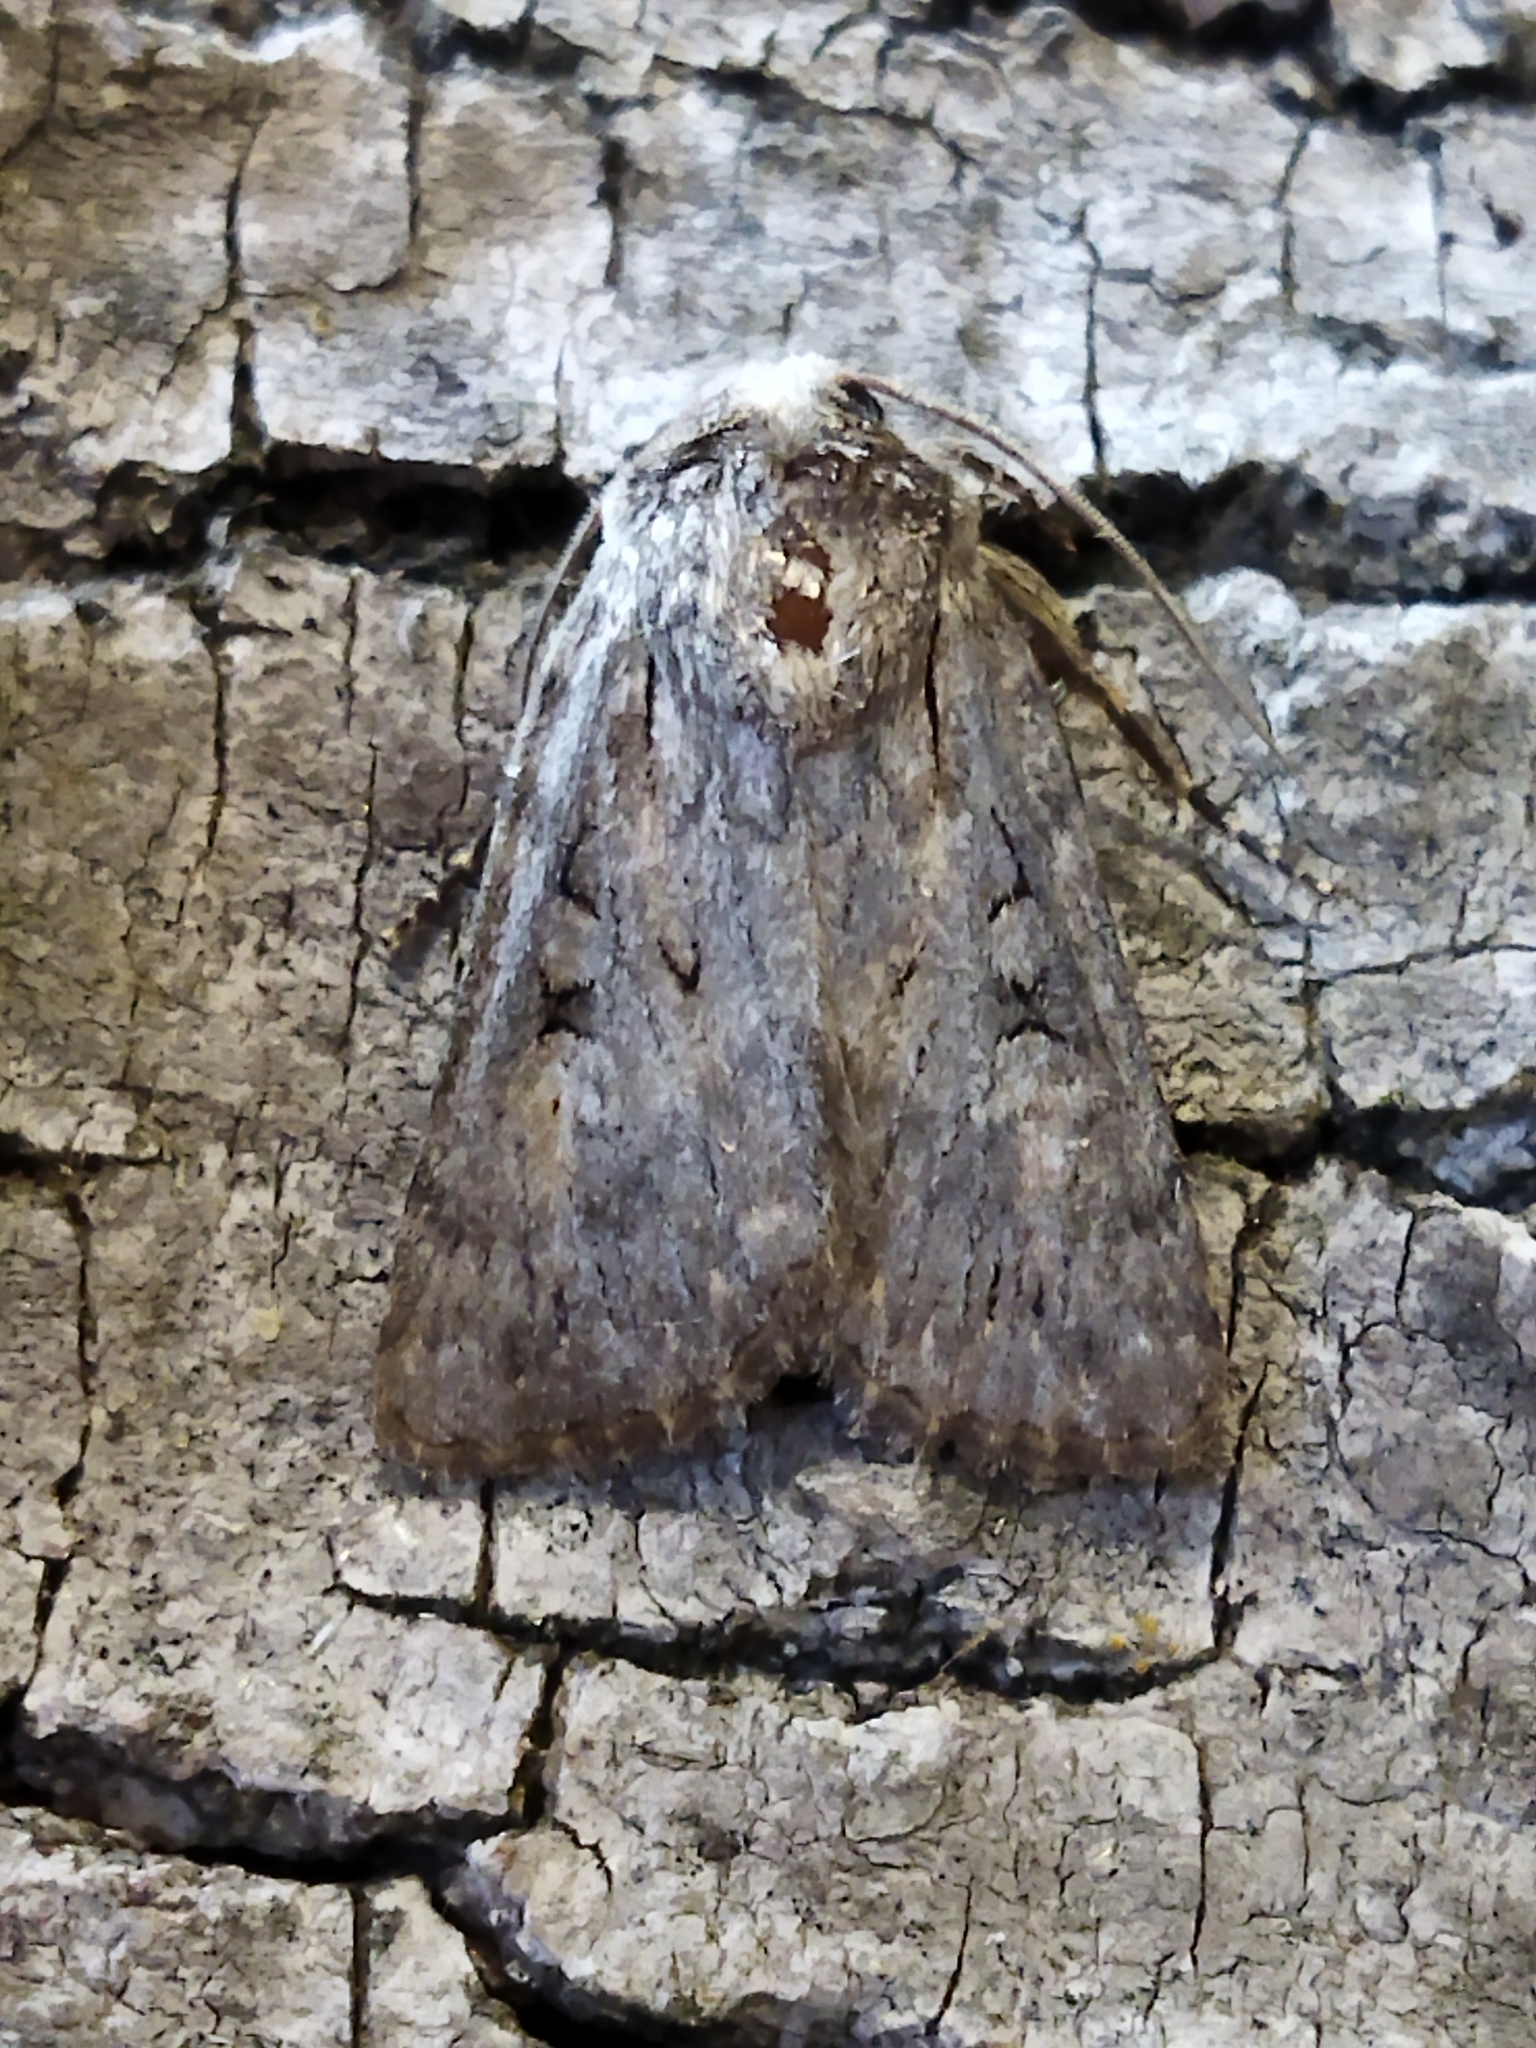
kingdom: Animalia
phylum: Arthropoda
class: Insecta
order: Lepidoptera
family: Noctuidae
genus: Yigoga
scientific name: Yigoga forcipula
